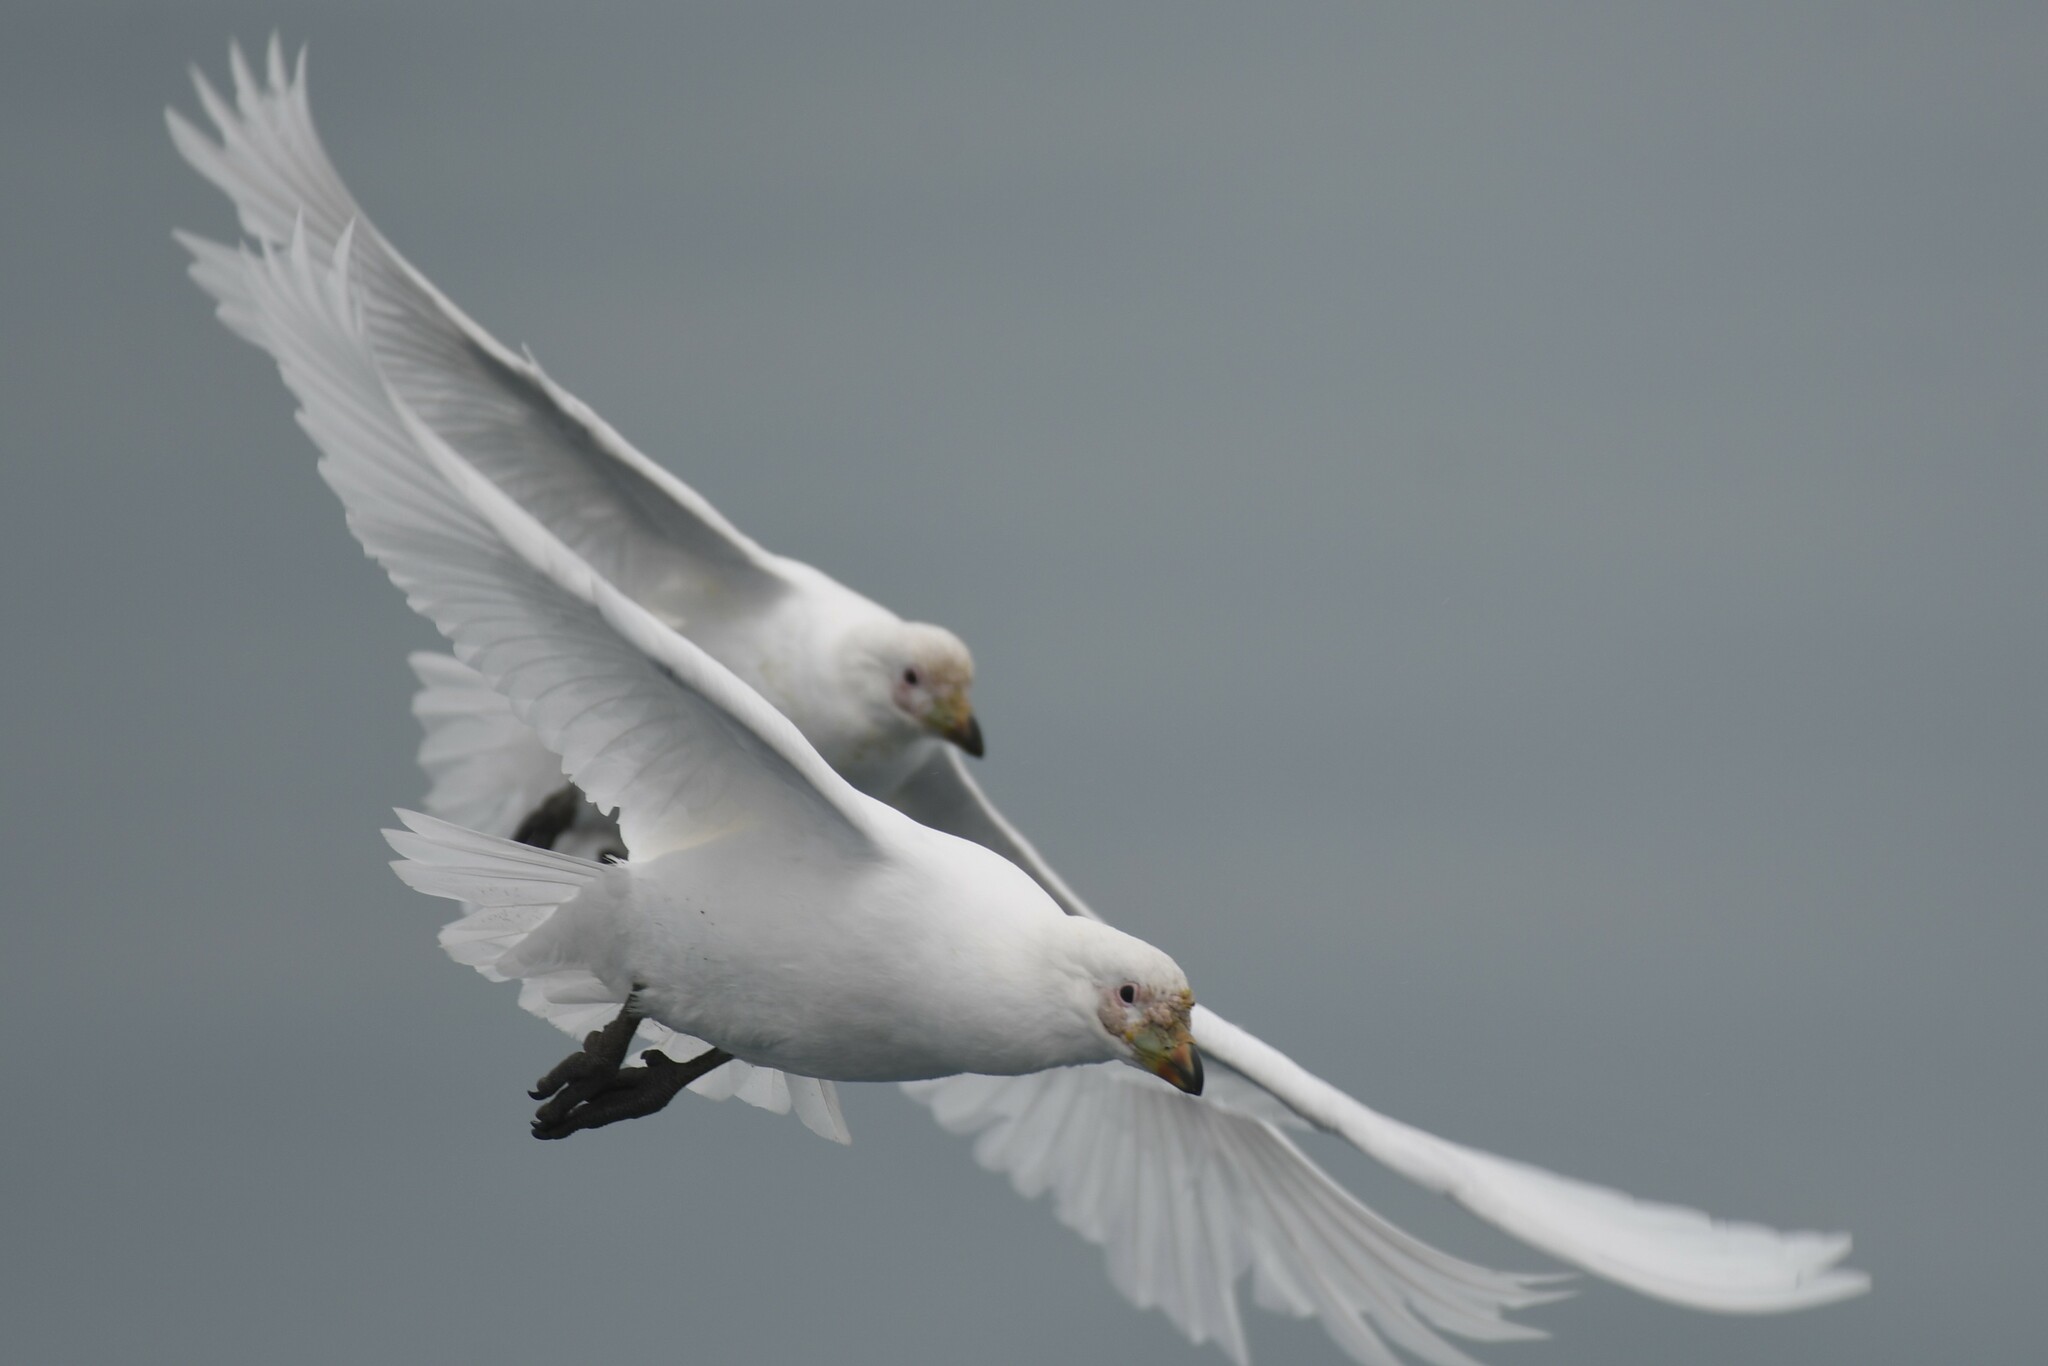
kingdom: Animalia
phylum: Chordata
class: Aves
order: Charadriiformes
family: Chionidae
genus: Chionis
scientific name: Chionis albus
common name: Snowy sheathbill
